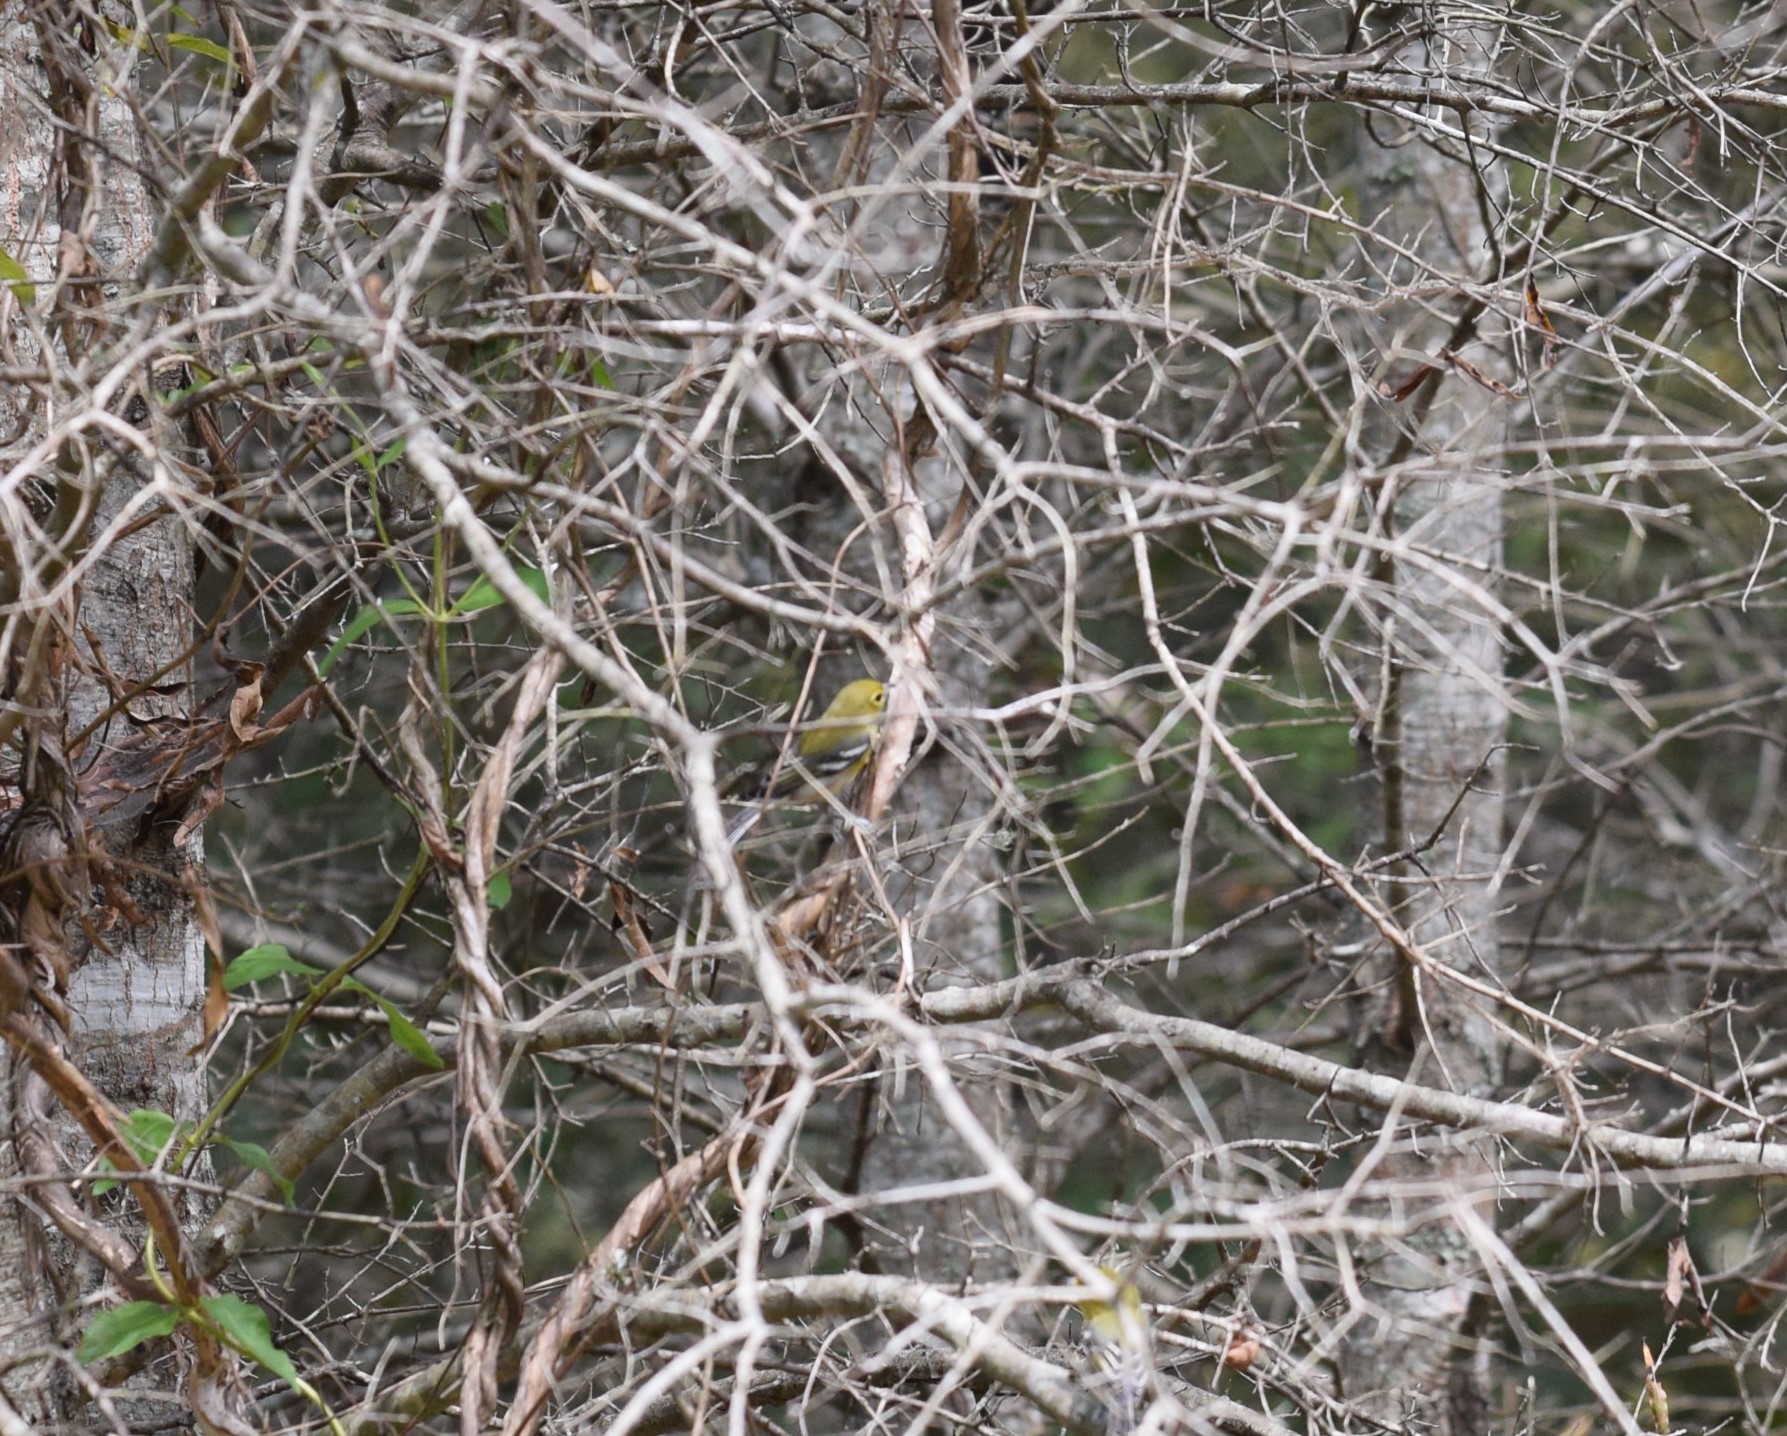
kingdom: Animalia
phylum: Chordata
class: Aves
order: Passeriformes
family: Parulidae
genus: Setophaga
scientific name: Setophaga pinus
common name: Pine warbler
